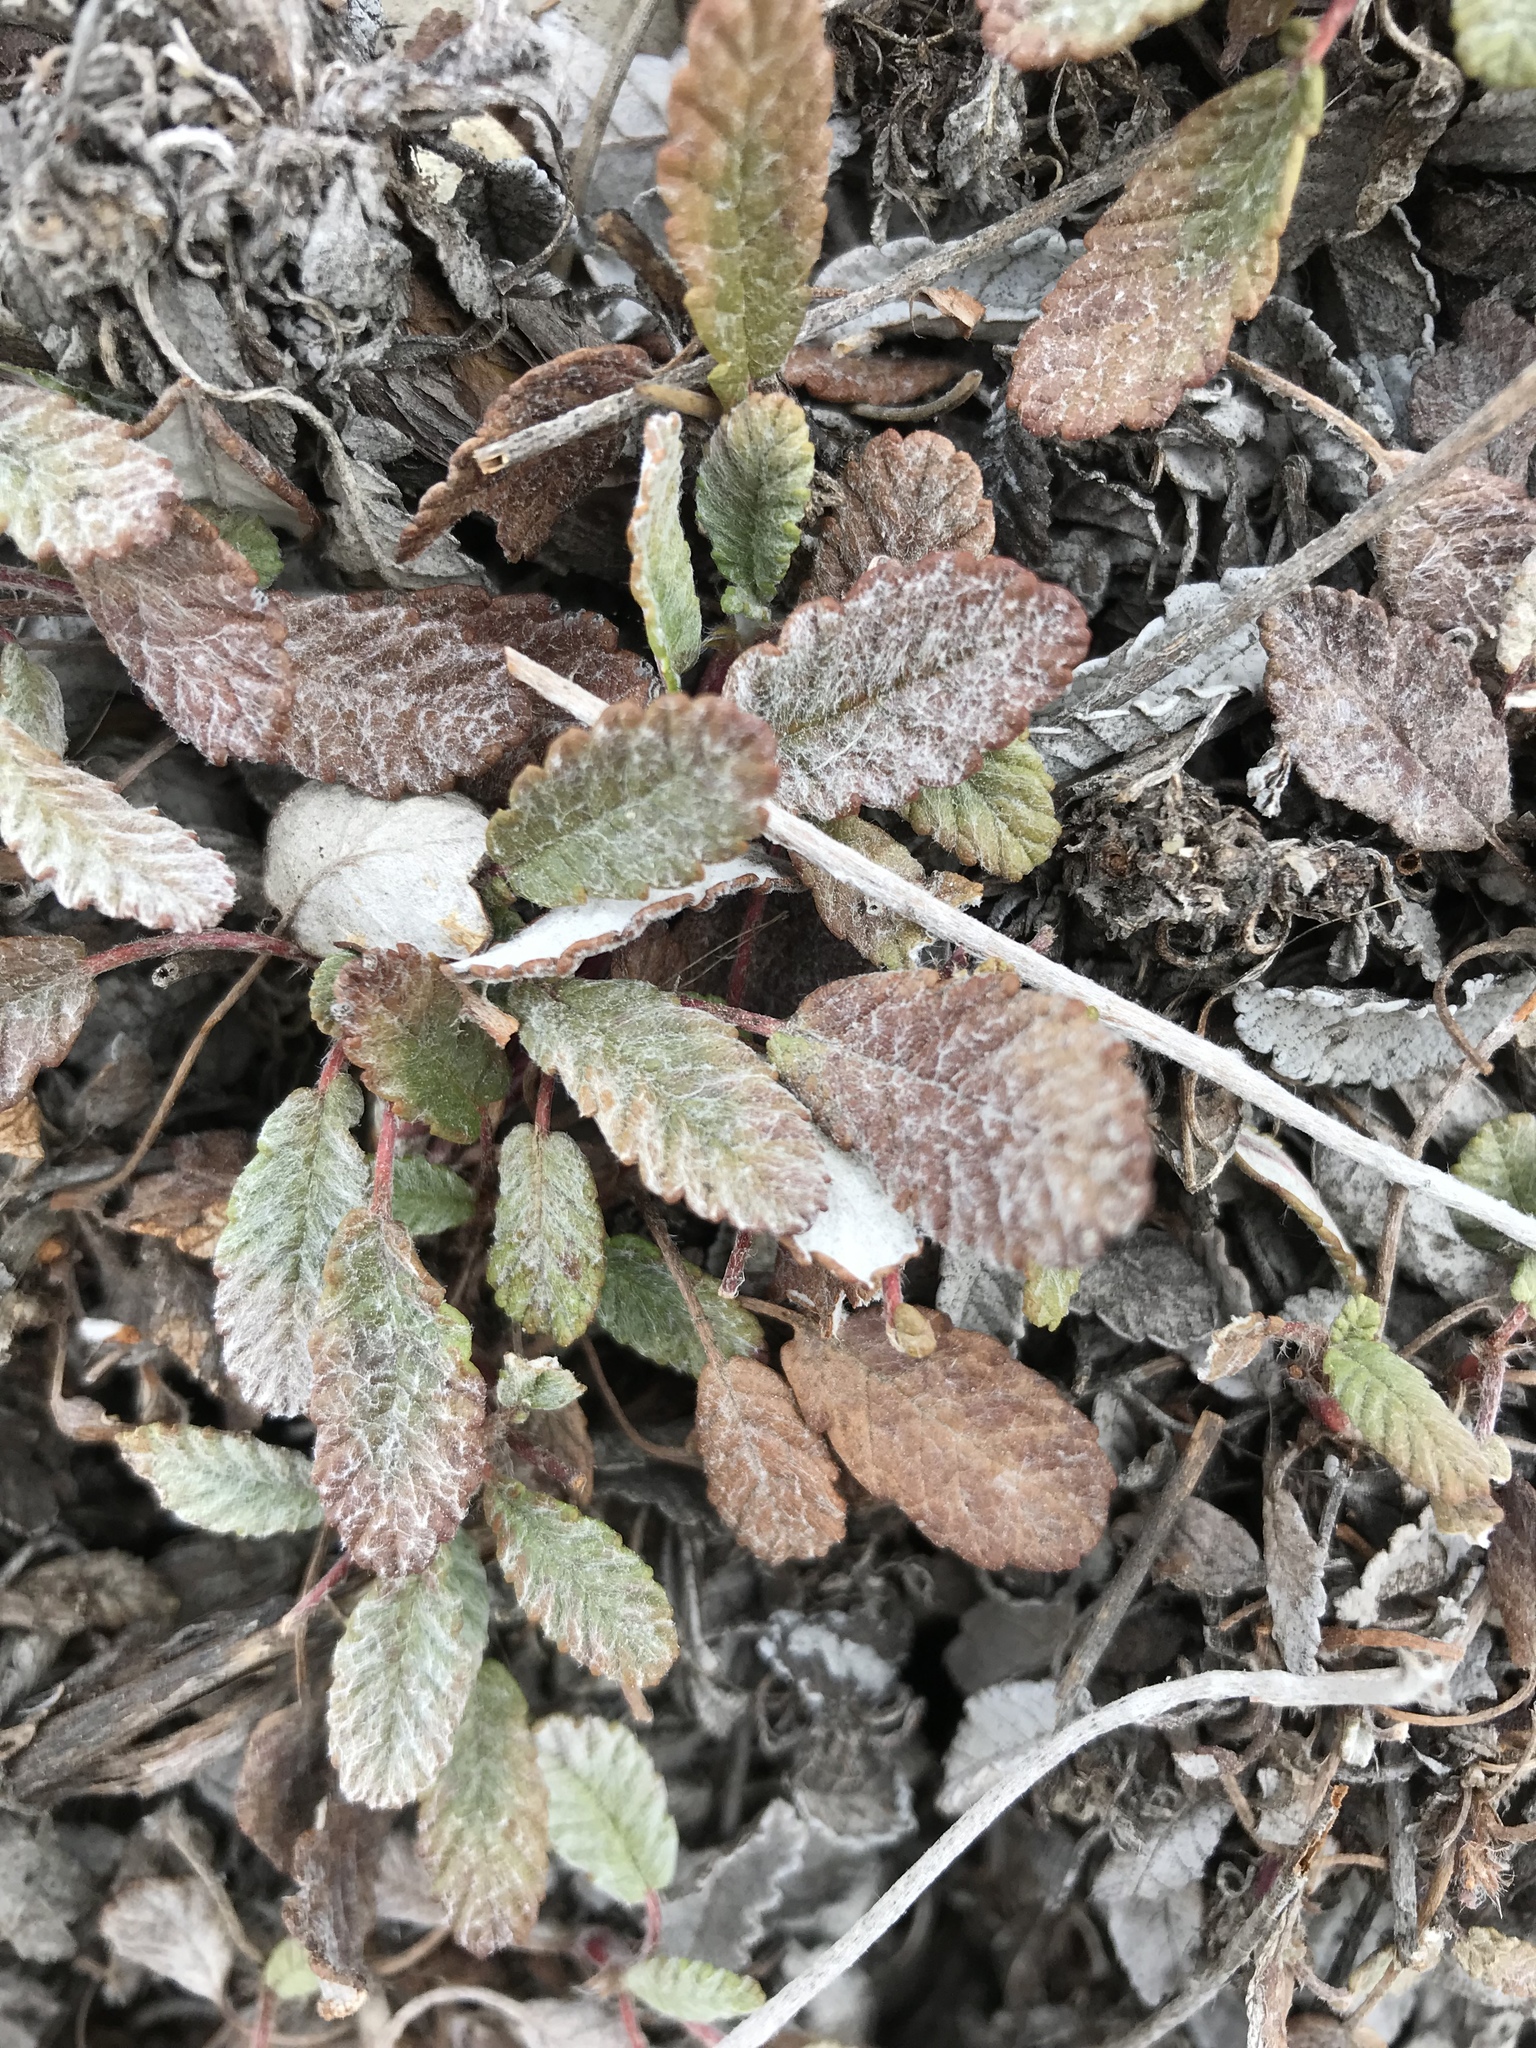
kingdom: Plantae
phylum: Tracheophyta
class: Magnoliopsida
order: Rosales
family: Rosaceae
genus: Dryas
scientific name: Dryas drummondii
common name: Drummond's dryad
